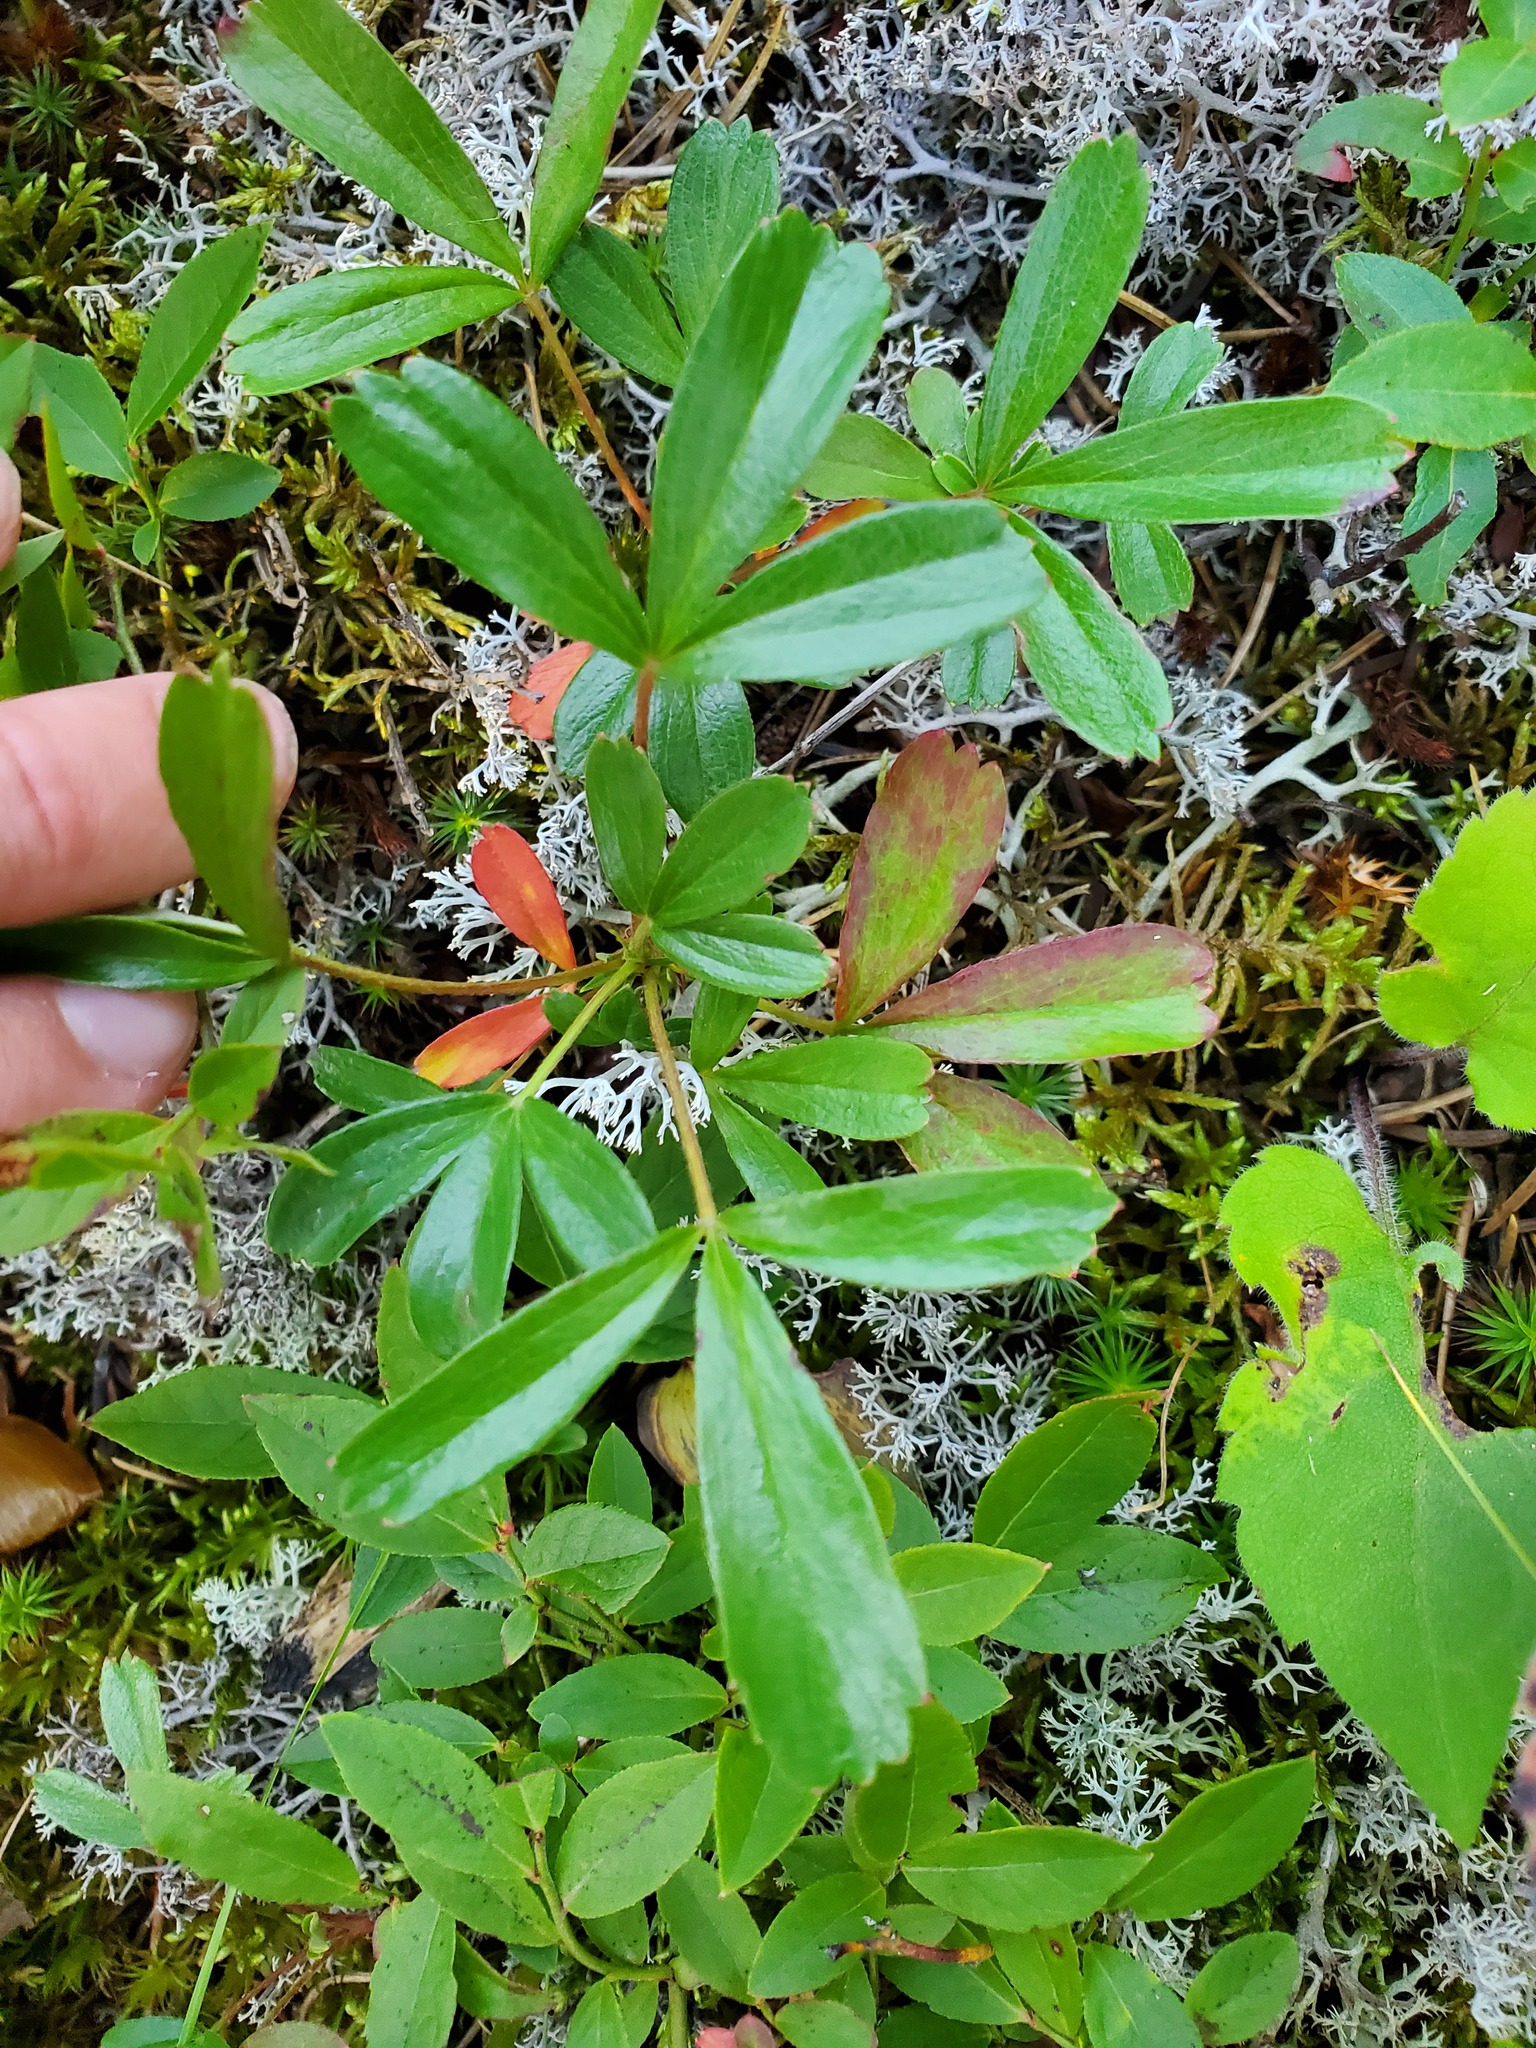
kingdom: Plantae
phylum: Tracheophyta
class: Magnoliopsida
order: Rosales
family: Rosaceae
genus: Sibbaldia
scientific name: Sibbaldia tridentata
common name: Three-toothed cinquefoil
